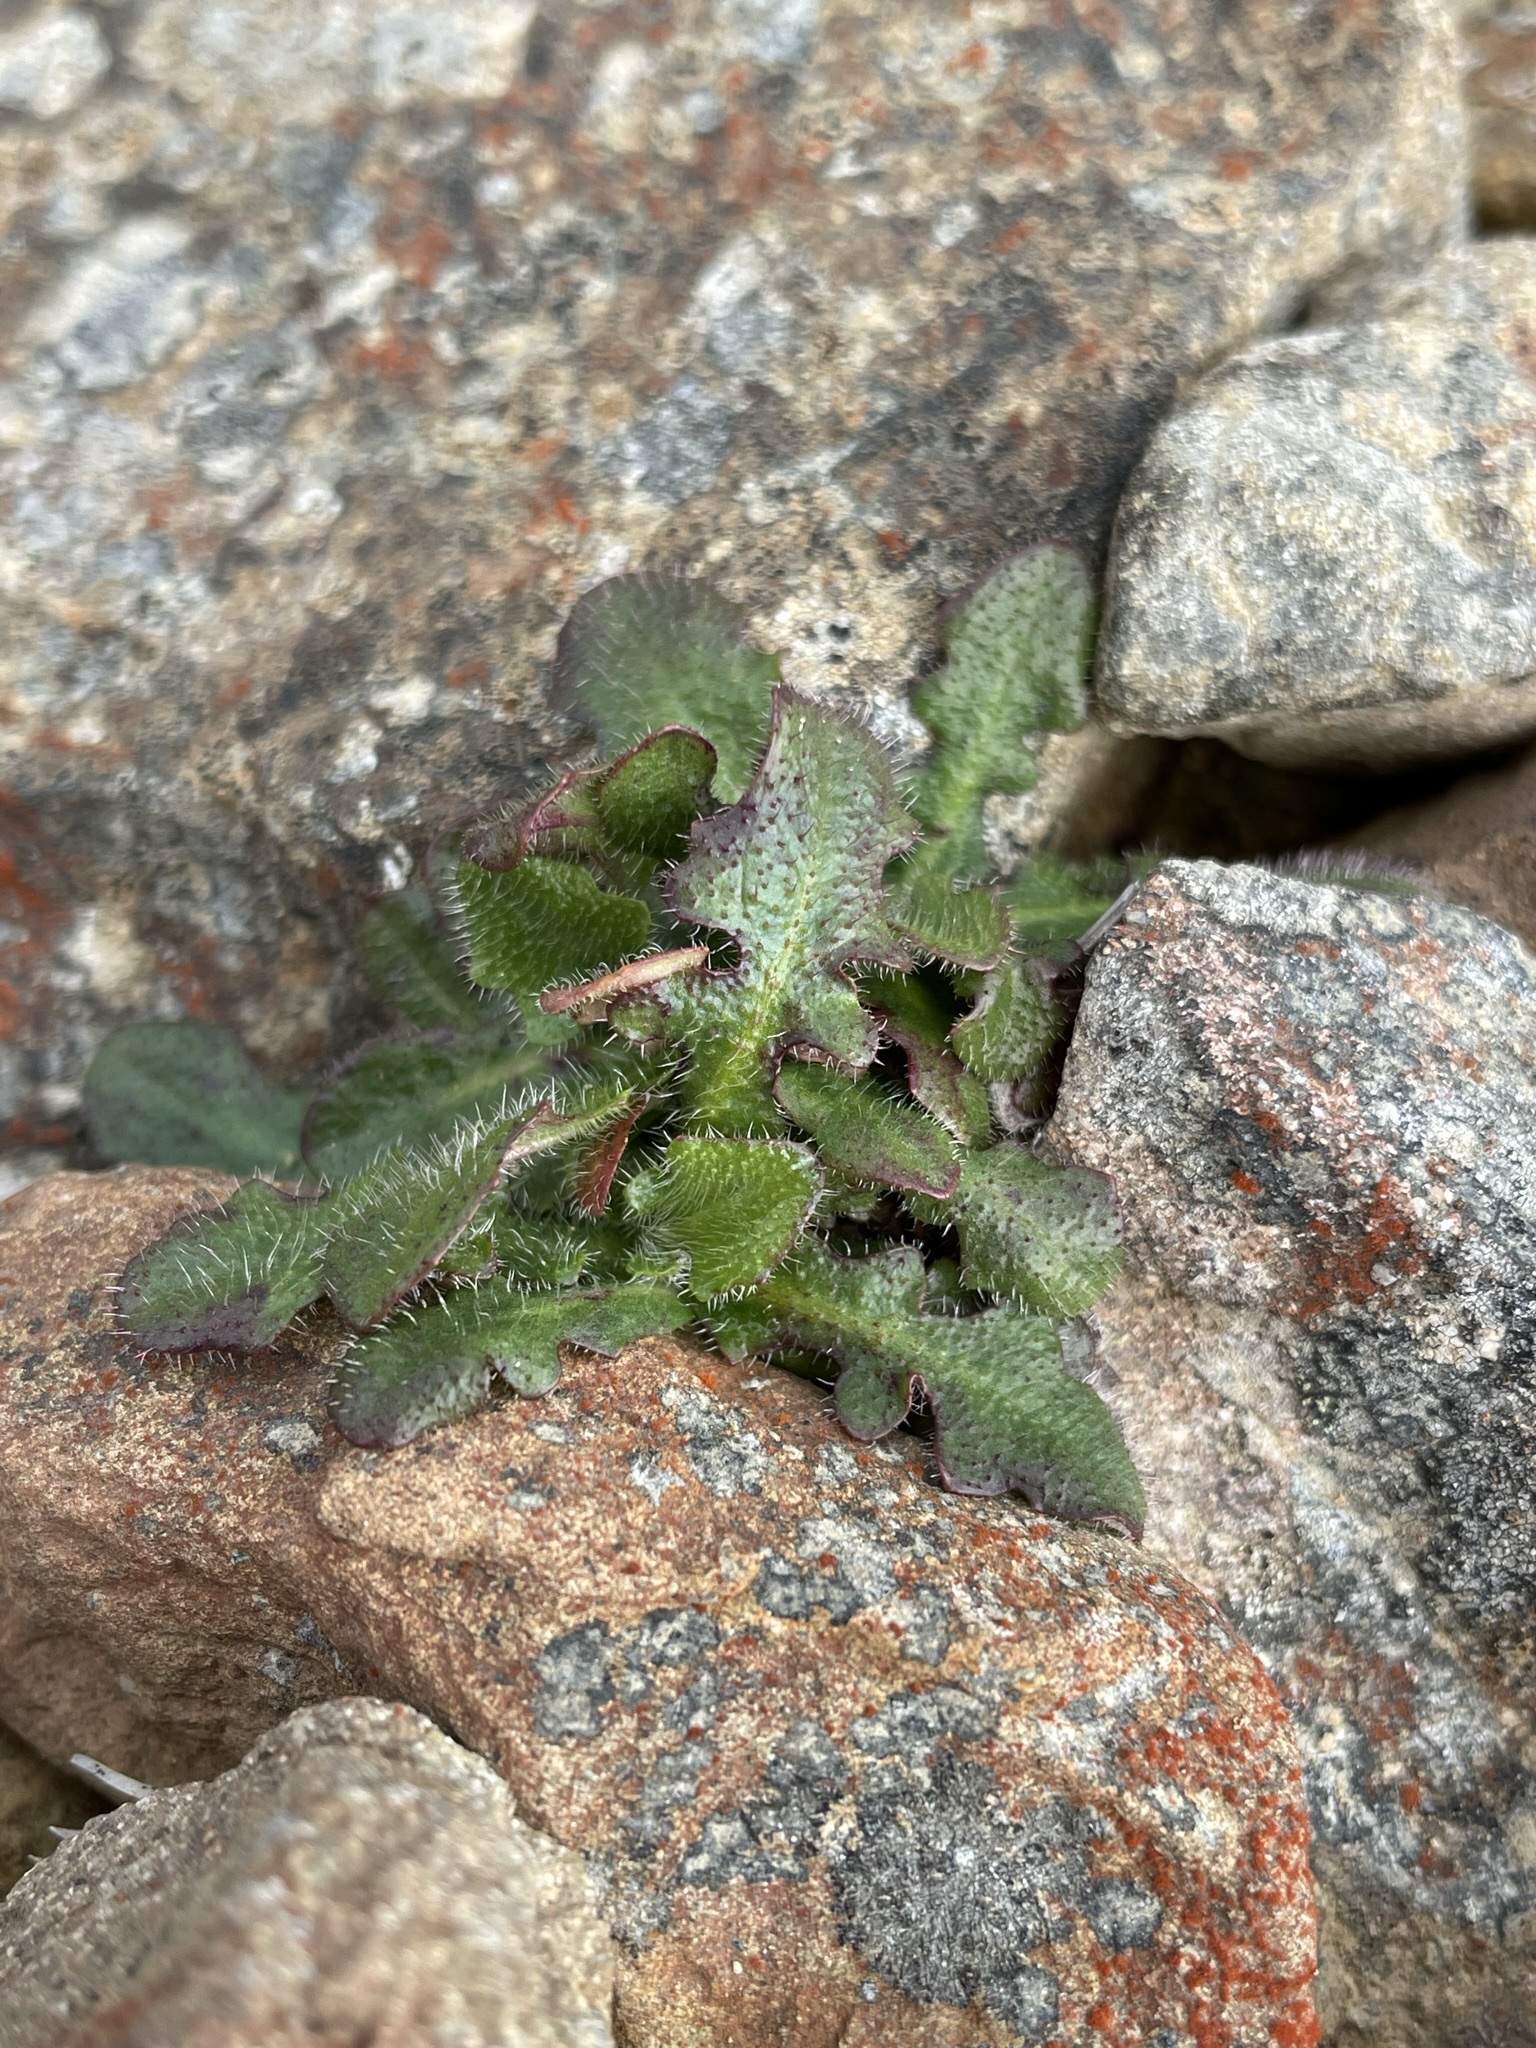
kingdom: Plantae
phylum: Tracheophyta
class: Magnoliopsida
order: Asterales
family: Asteraceae
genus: Hypochaeris
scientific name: Hypochaeris radicata
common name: Flatweed
